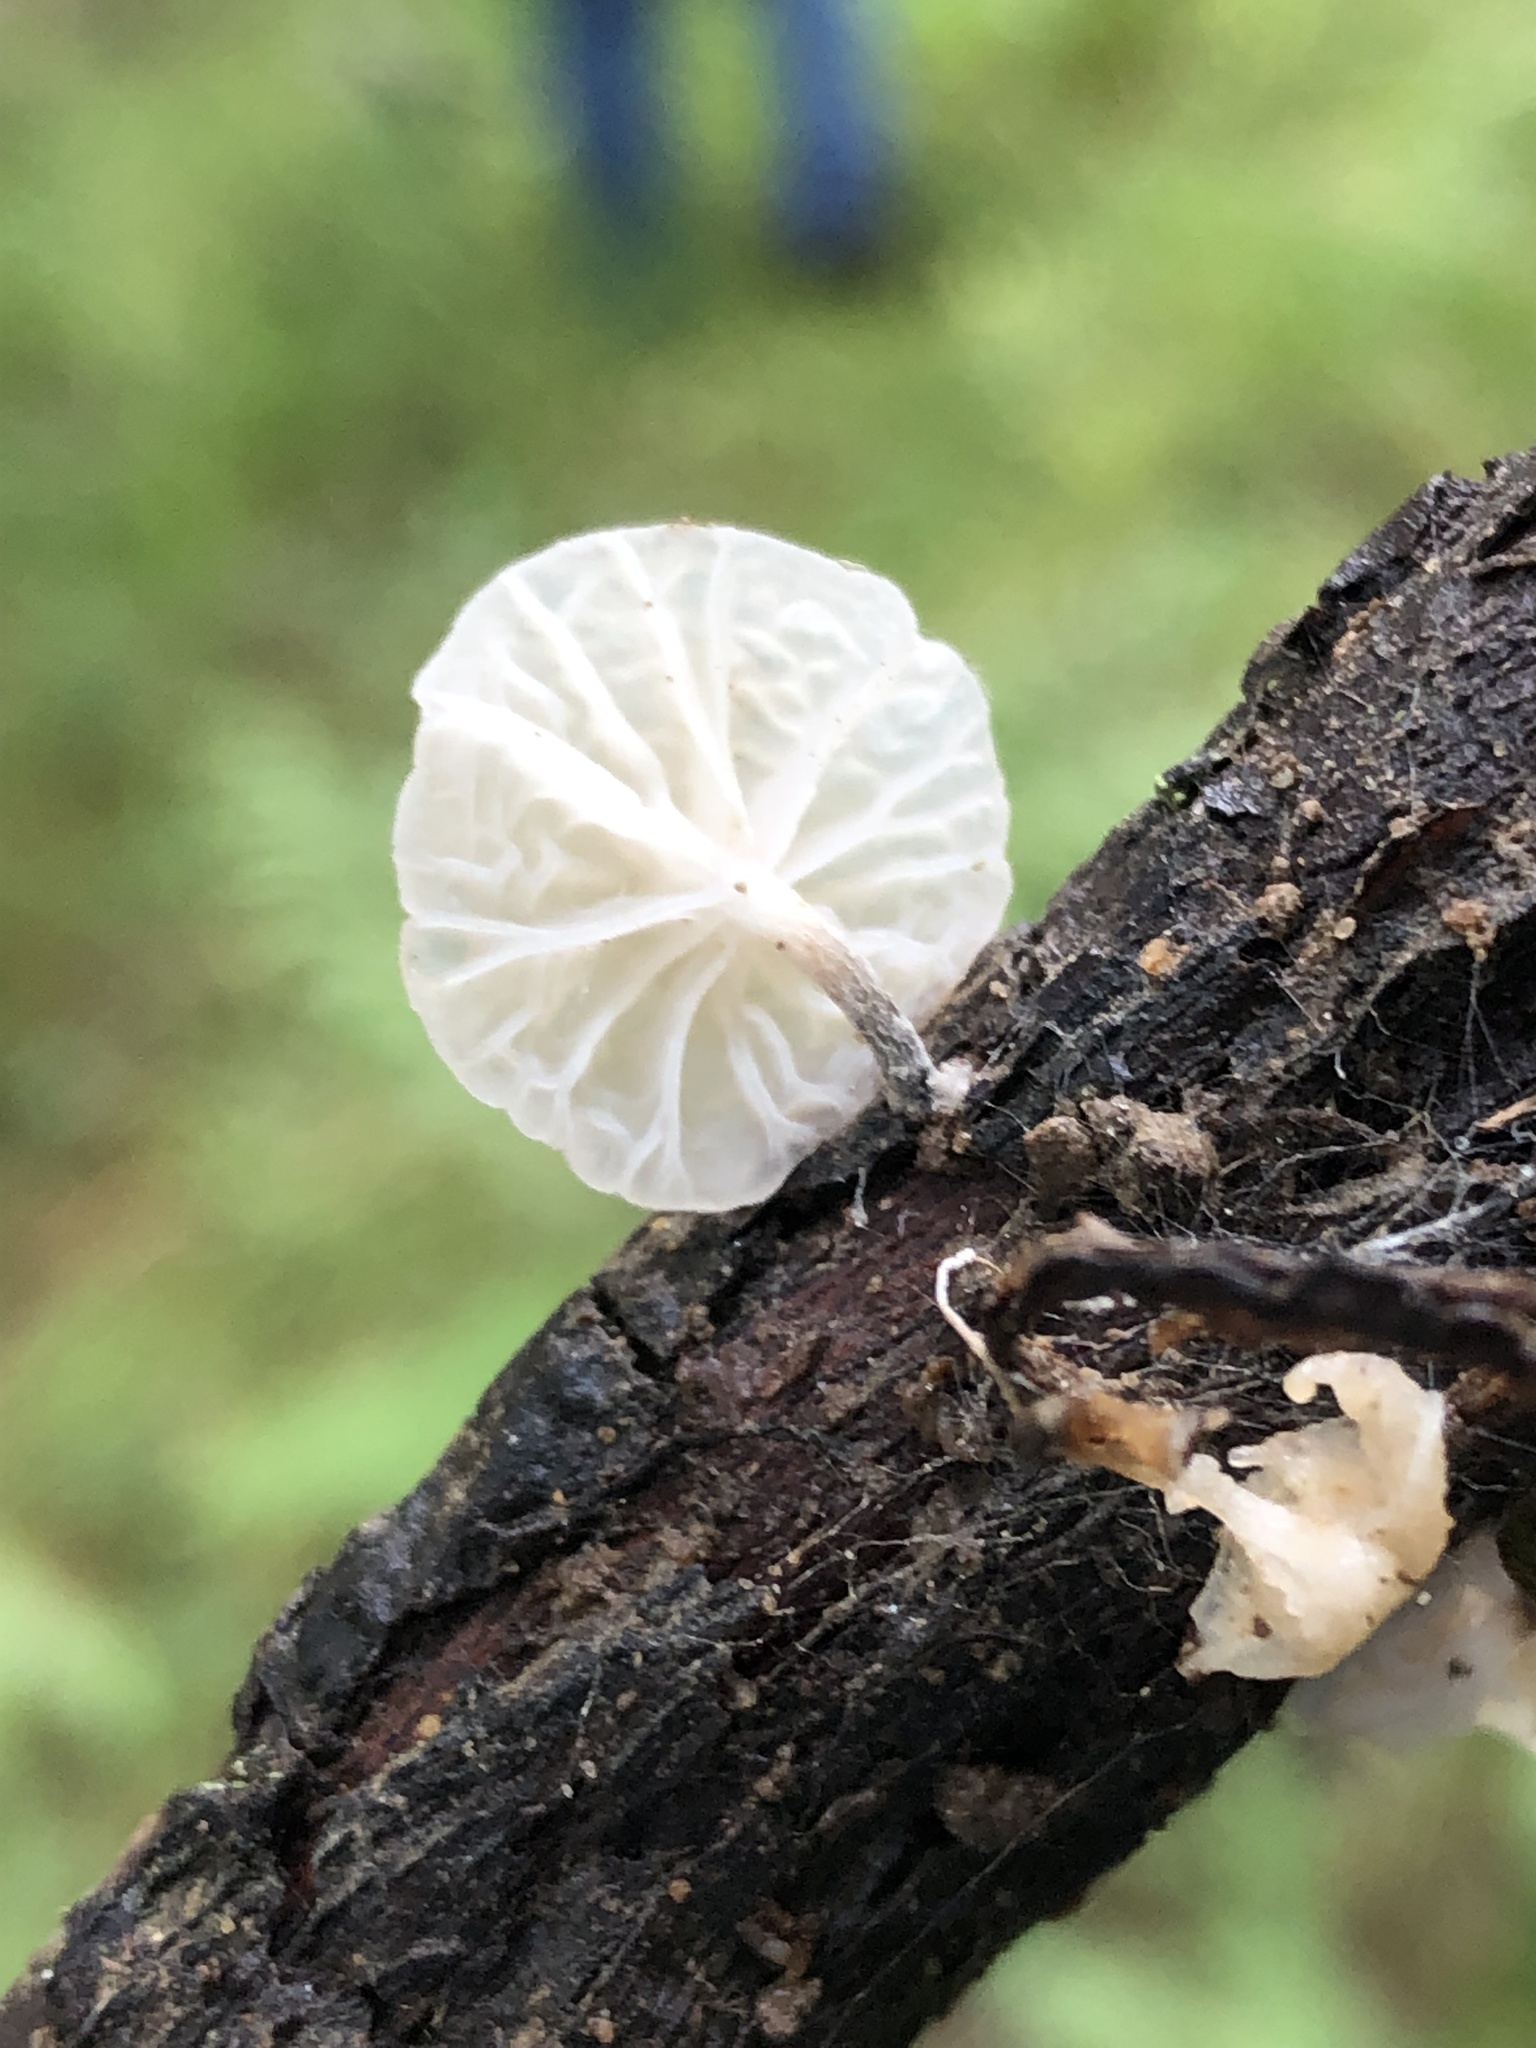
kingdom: Fungi
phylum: Basidiomycota
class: Agaricomycetes
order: Agaricales
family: Omphalotaceae
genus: Marasmiellus
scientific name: Marasmiellus candidus
